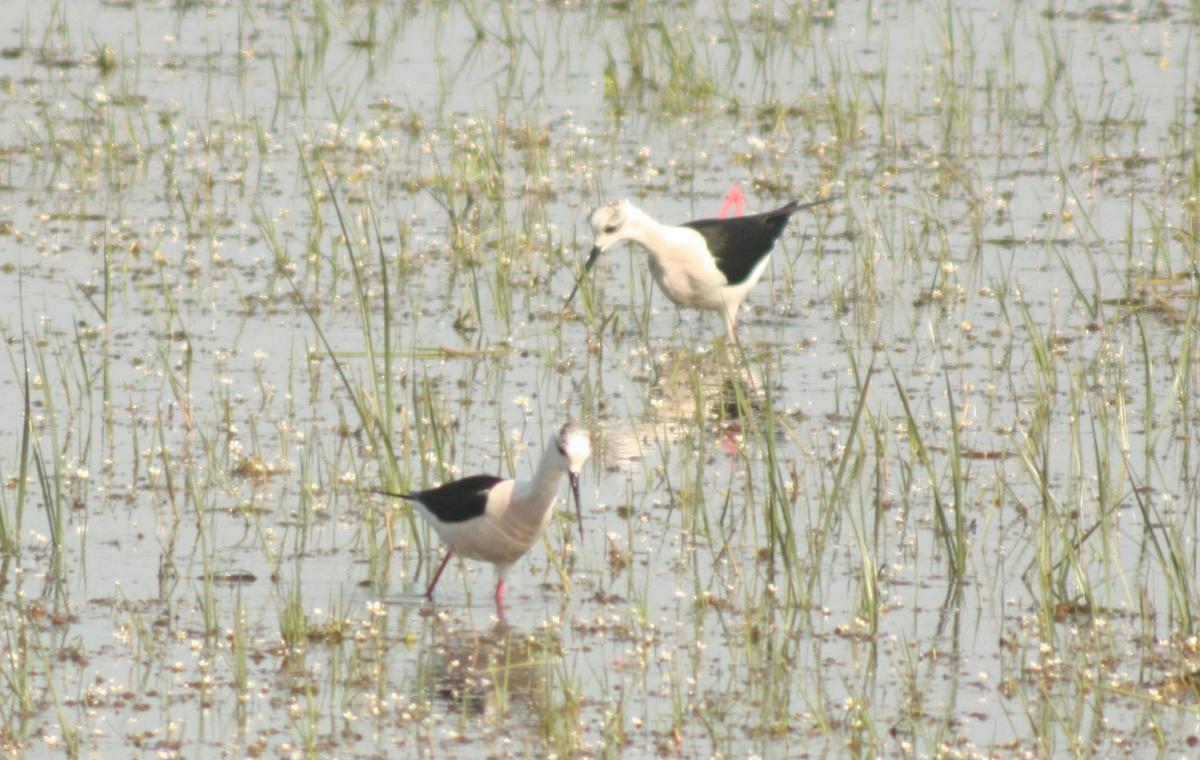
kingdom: Animalia
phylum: Chordata
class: Aves
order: Charadriiformes
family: Recurvirostridae
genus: Himantopus
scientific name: Himantopus himantopus
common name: Black-winged stilt
